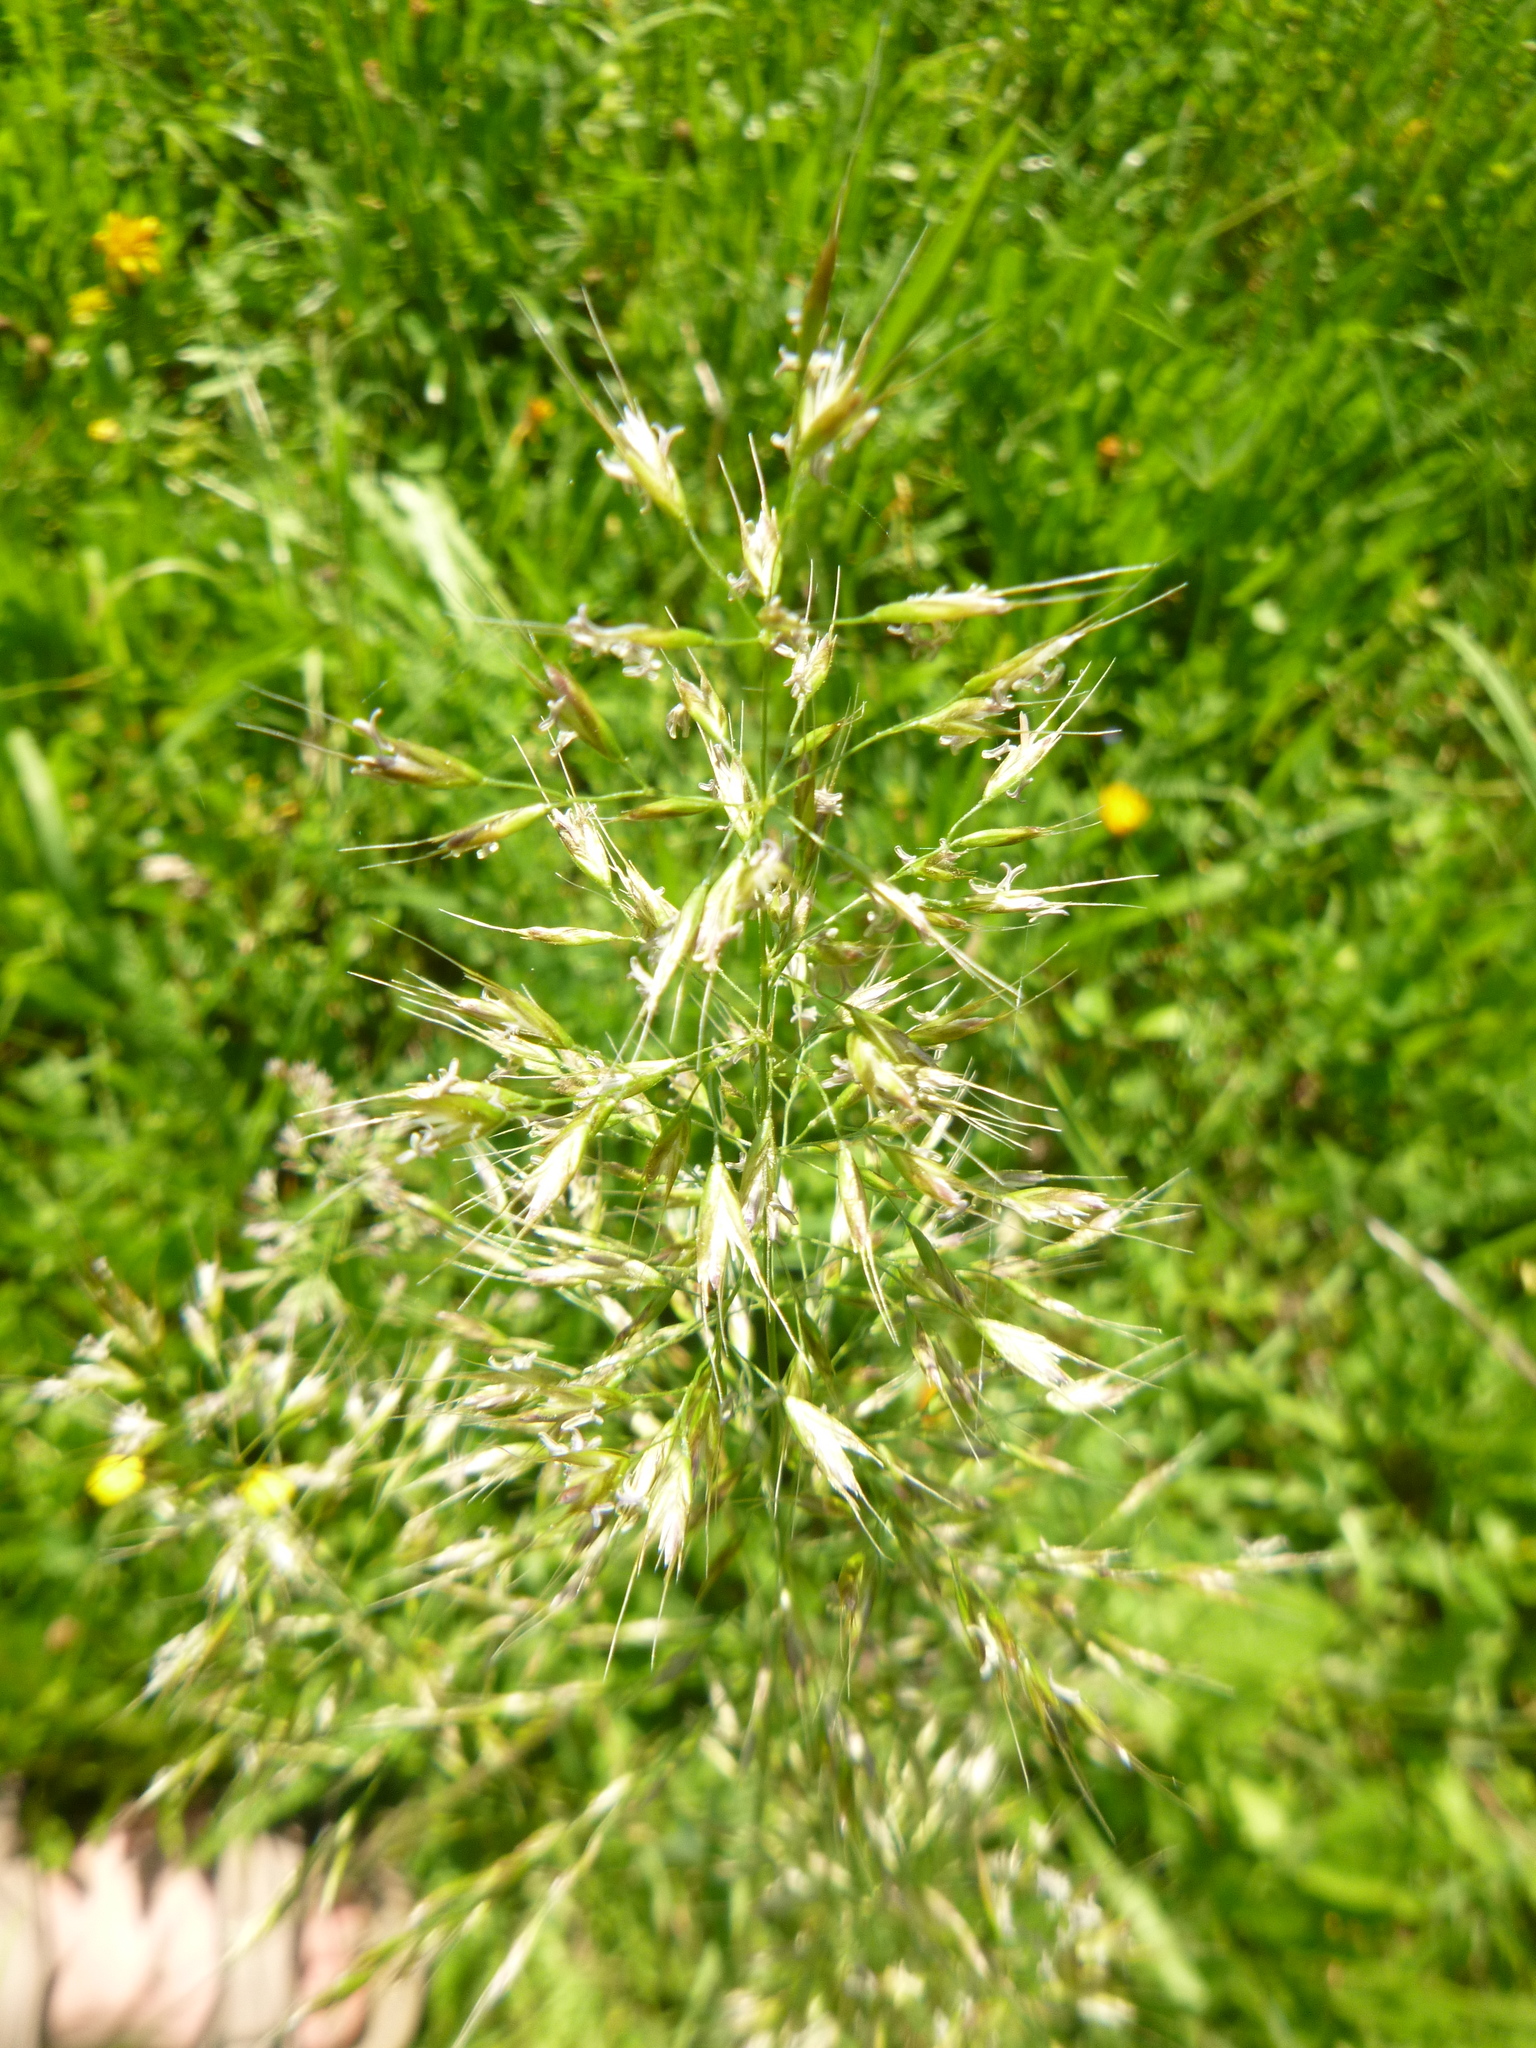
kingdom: Plantae
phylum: Tracheophyta
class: Liliopsida
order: Poales
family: Poaceae
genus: Trisetum
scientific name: Trisetum flavescens
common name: Yellow oat-grass
